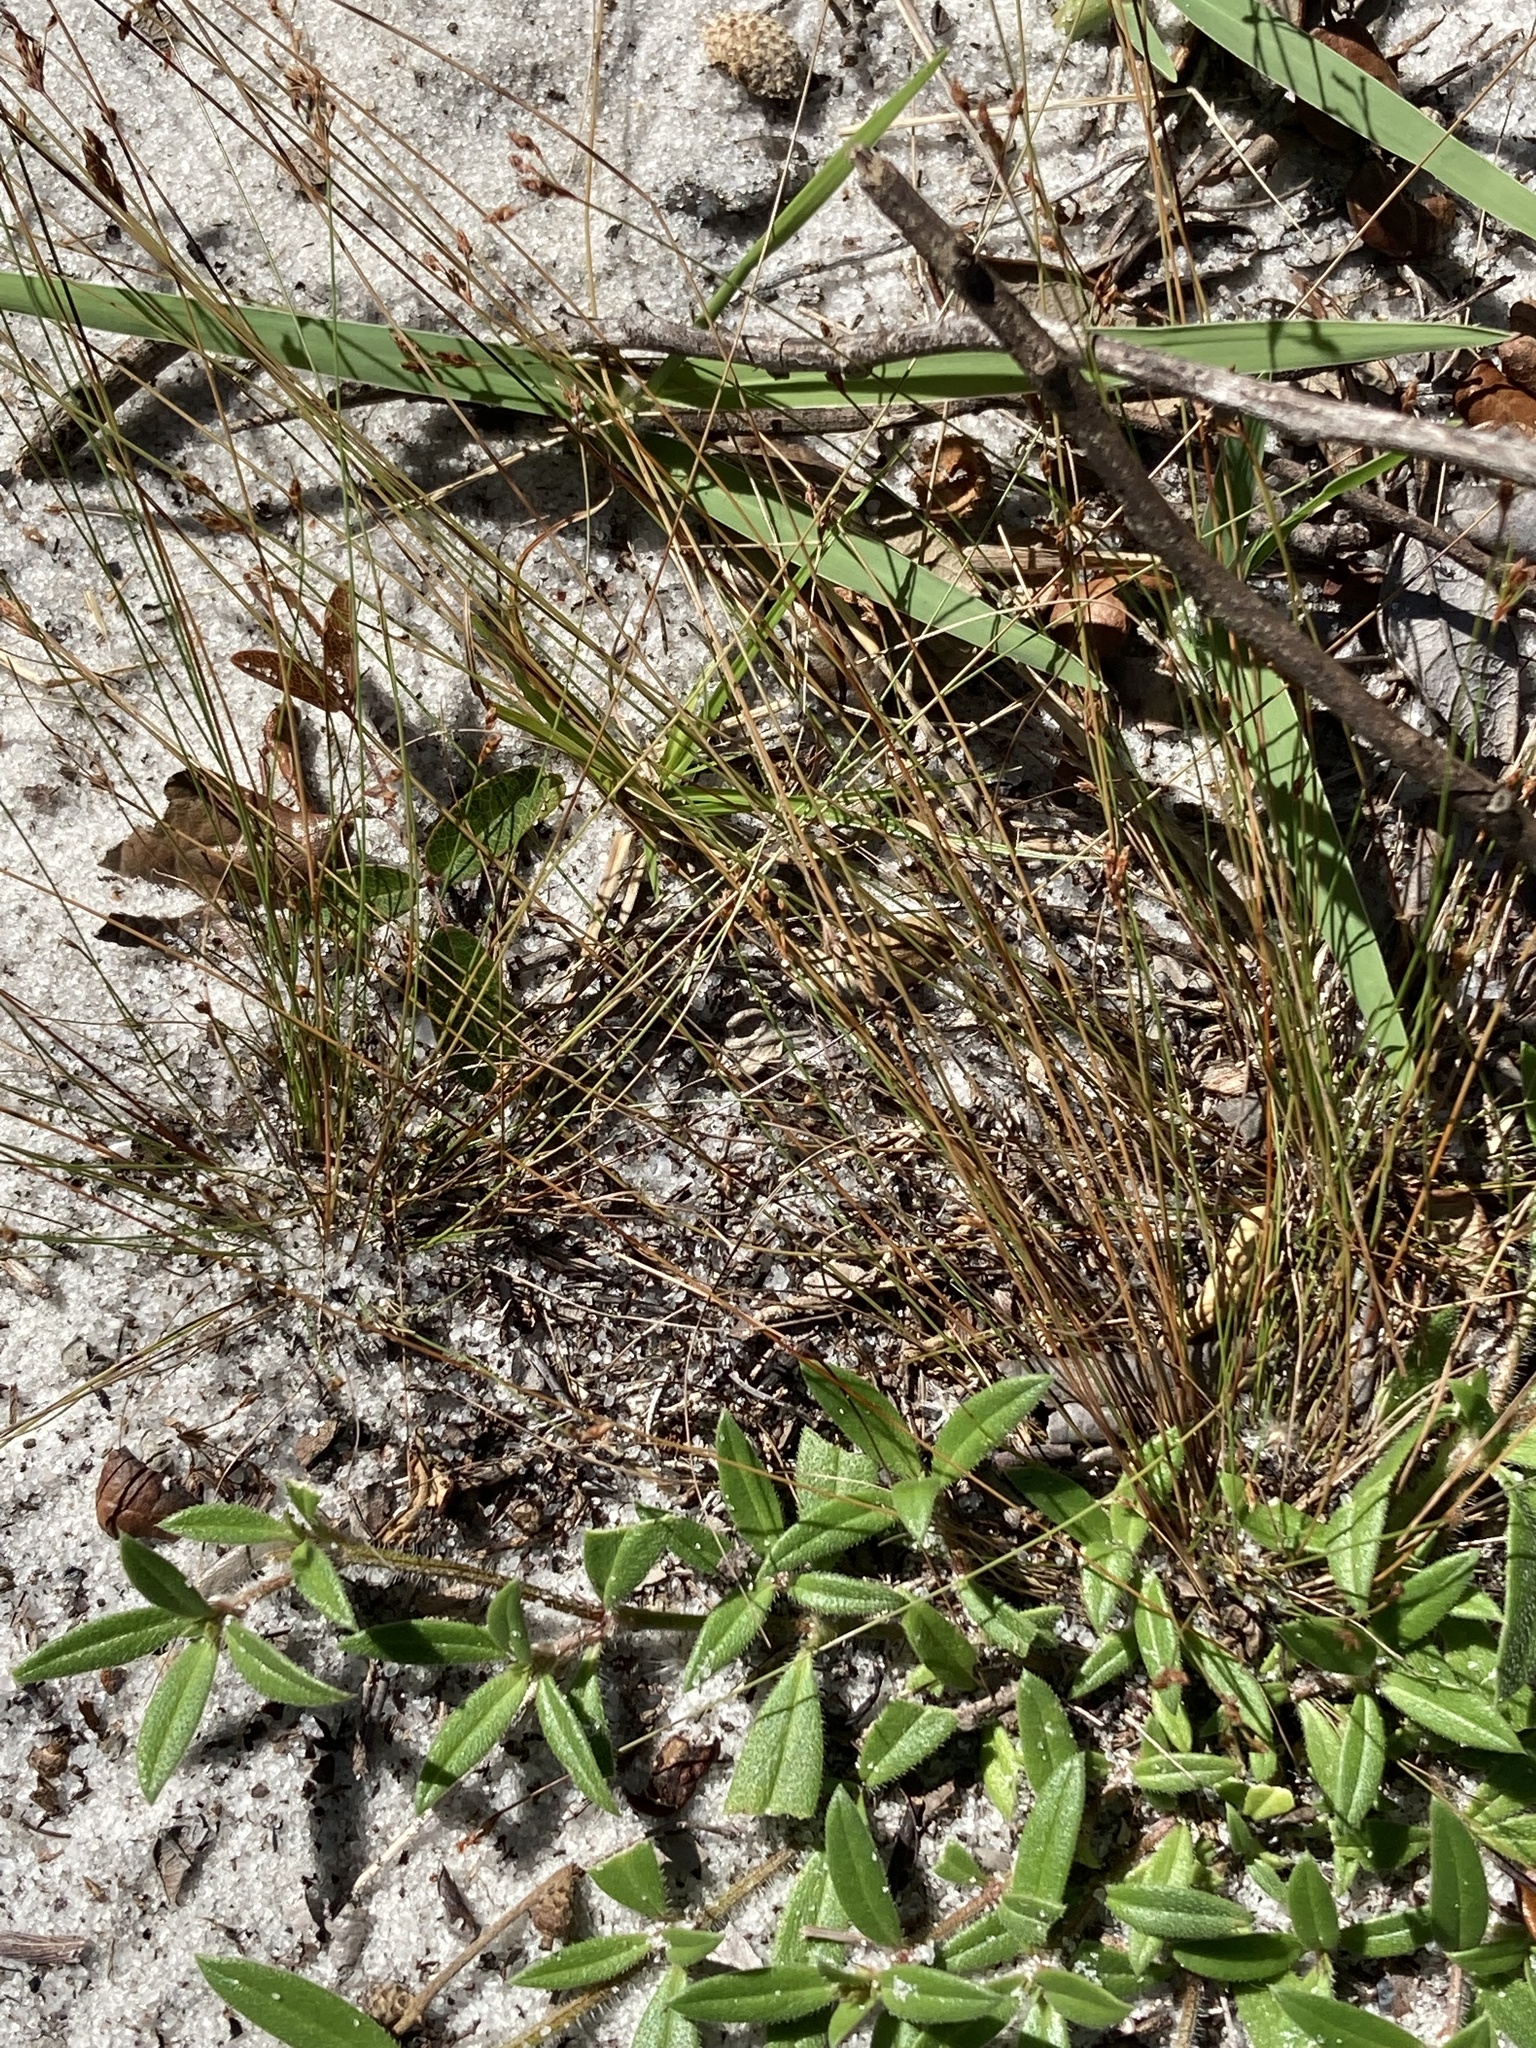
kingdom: Plantae
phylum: Tracheophyta
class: Liliopsida
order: Poales
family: Cyperaceae
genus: Bulbostylis
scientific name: Bulbostylis ciliatifolia
